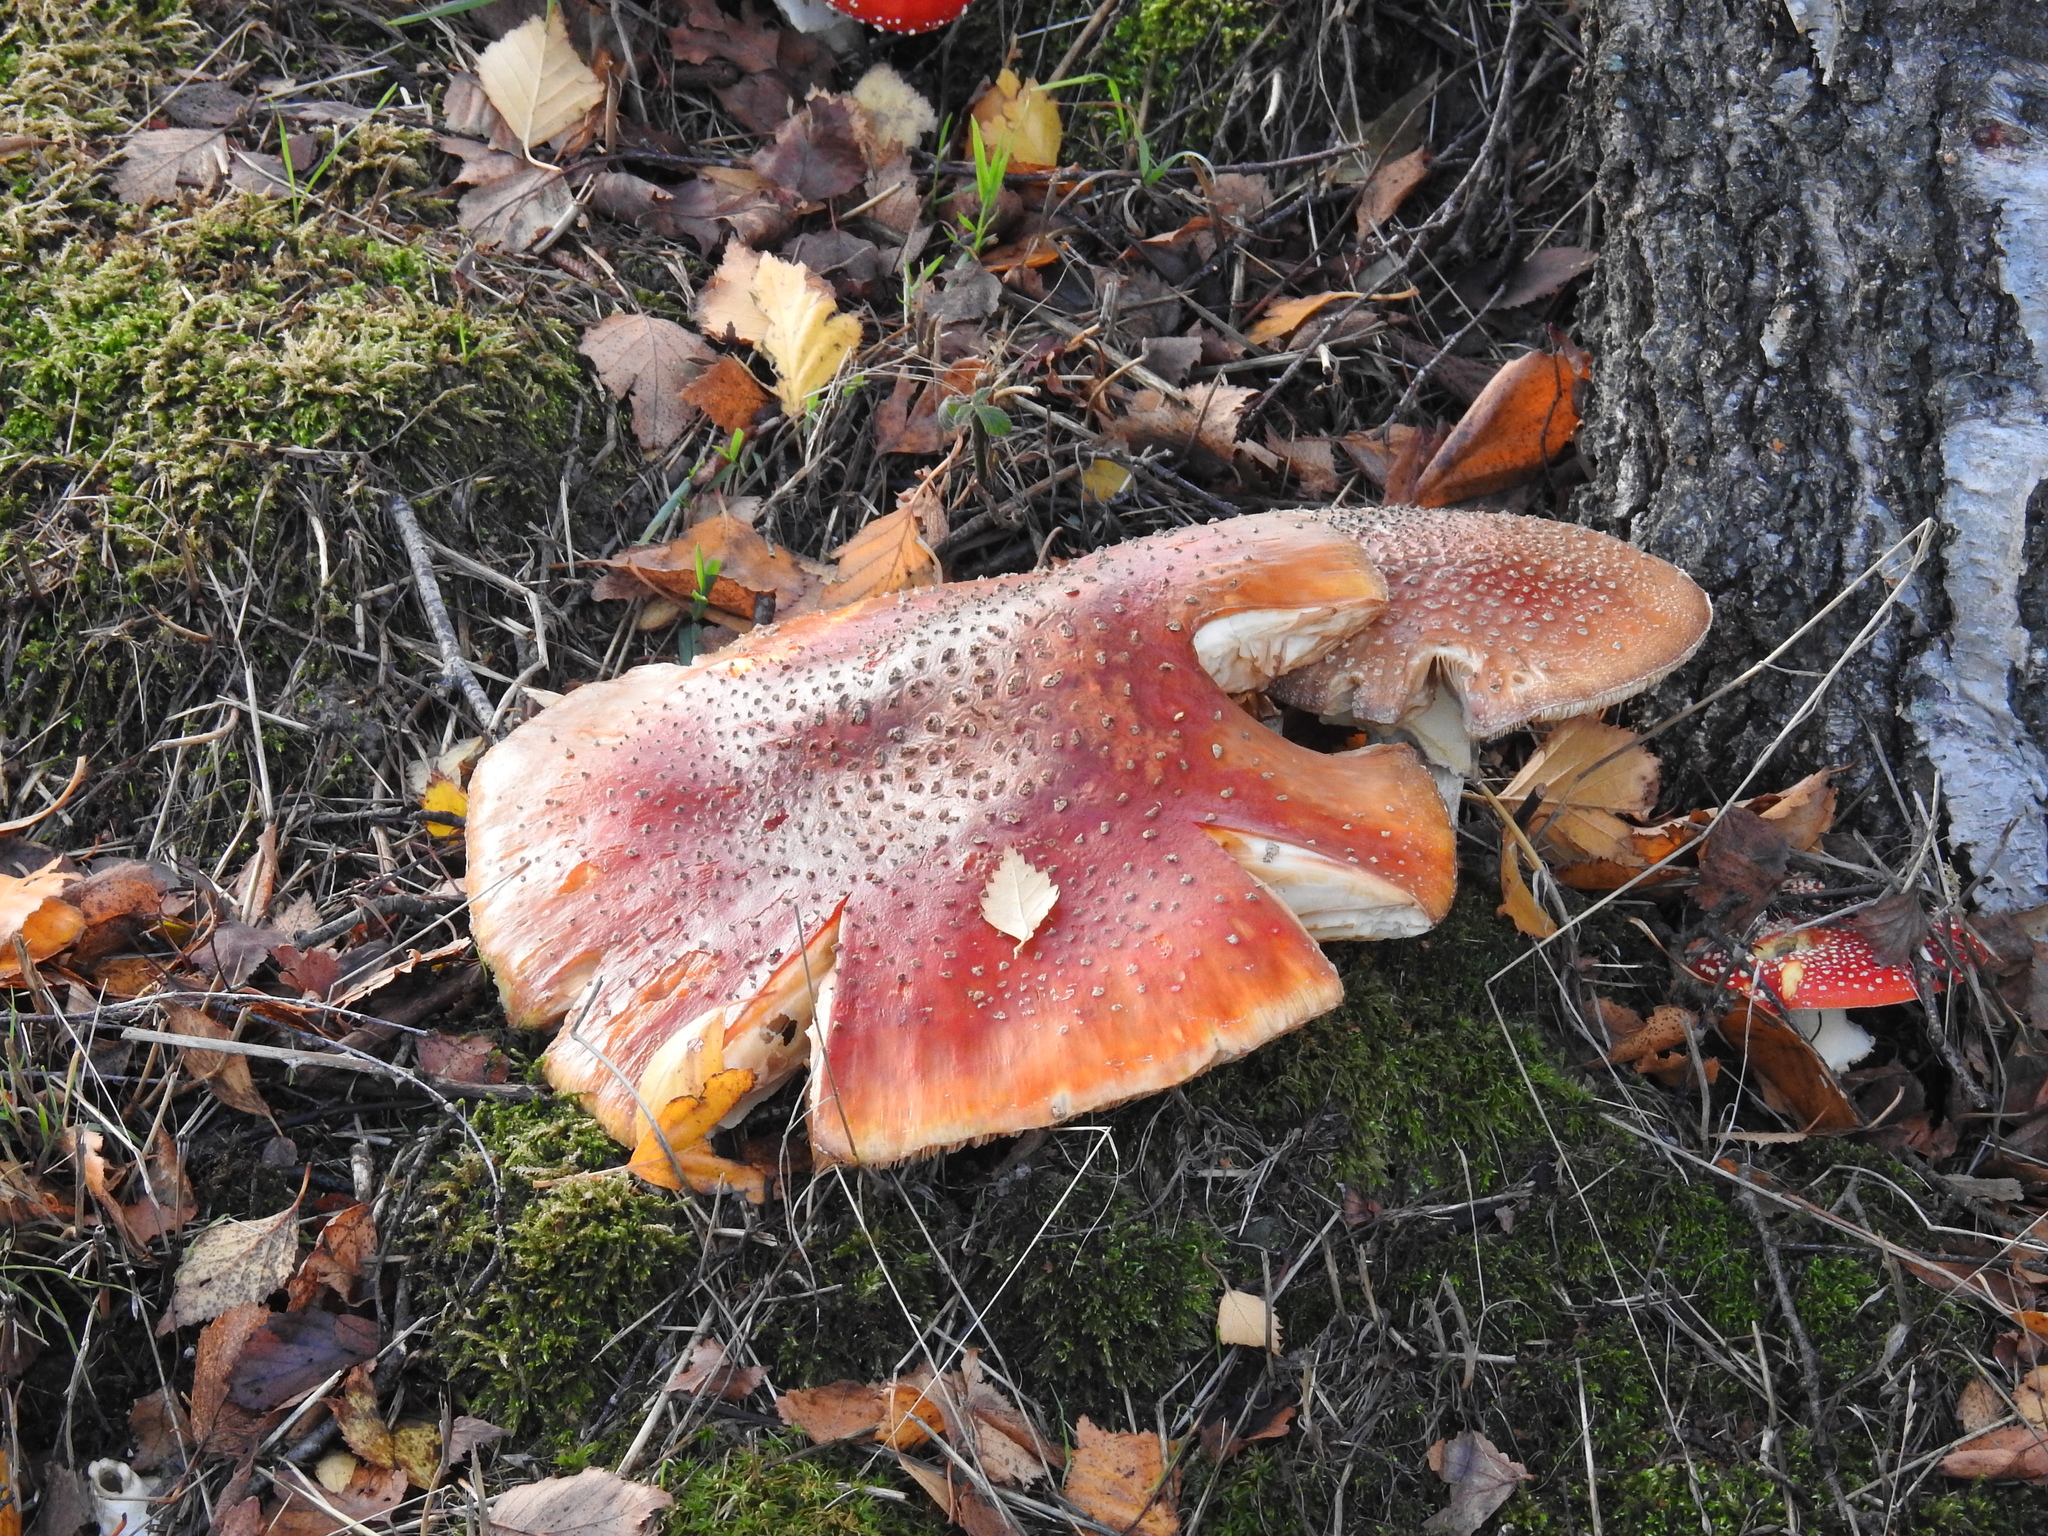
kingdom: Fungi
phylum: Basidiomycota
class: Agaricomycetes
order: Agaricales
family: Amanitaceae
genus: Amanita
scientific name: Amanita muscaria
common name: Fly agaric
